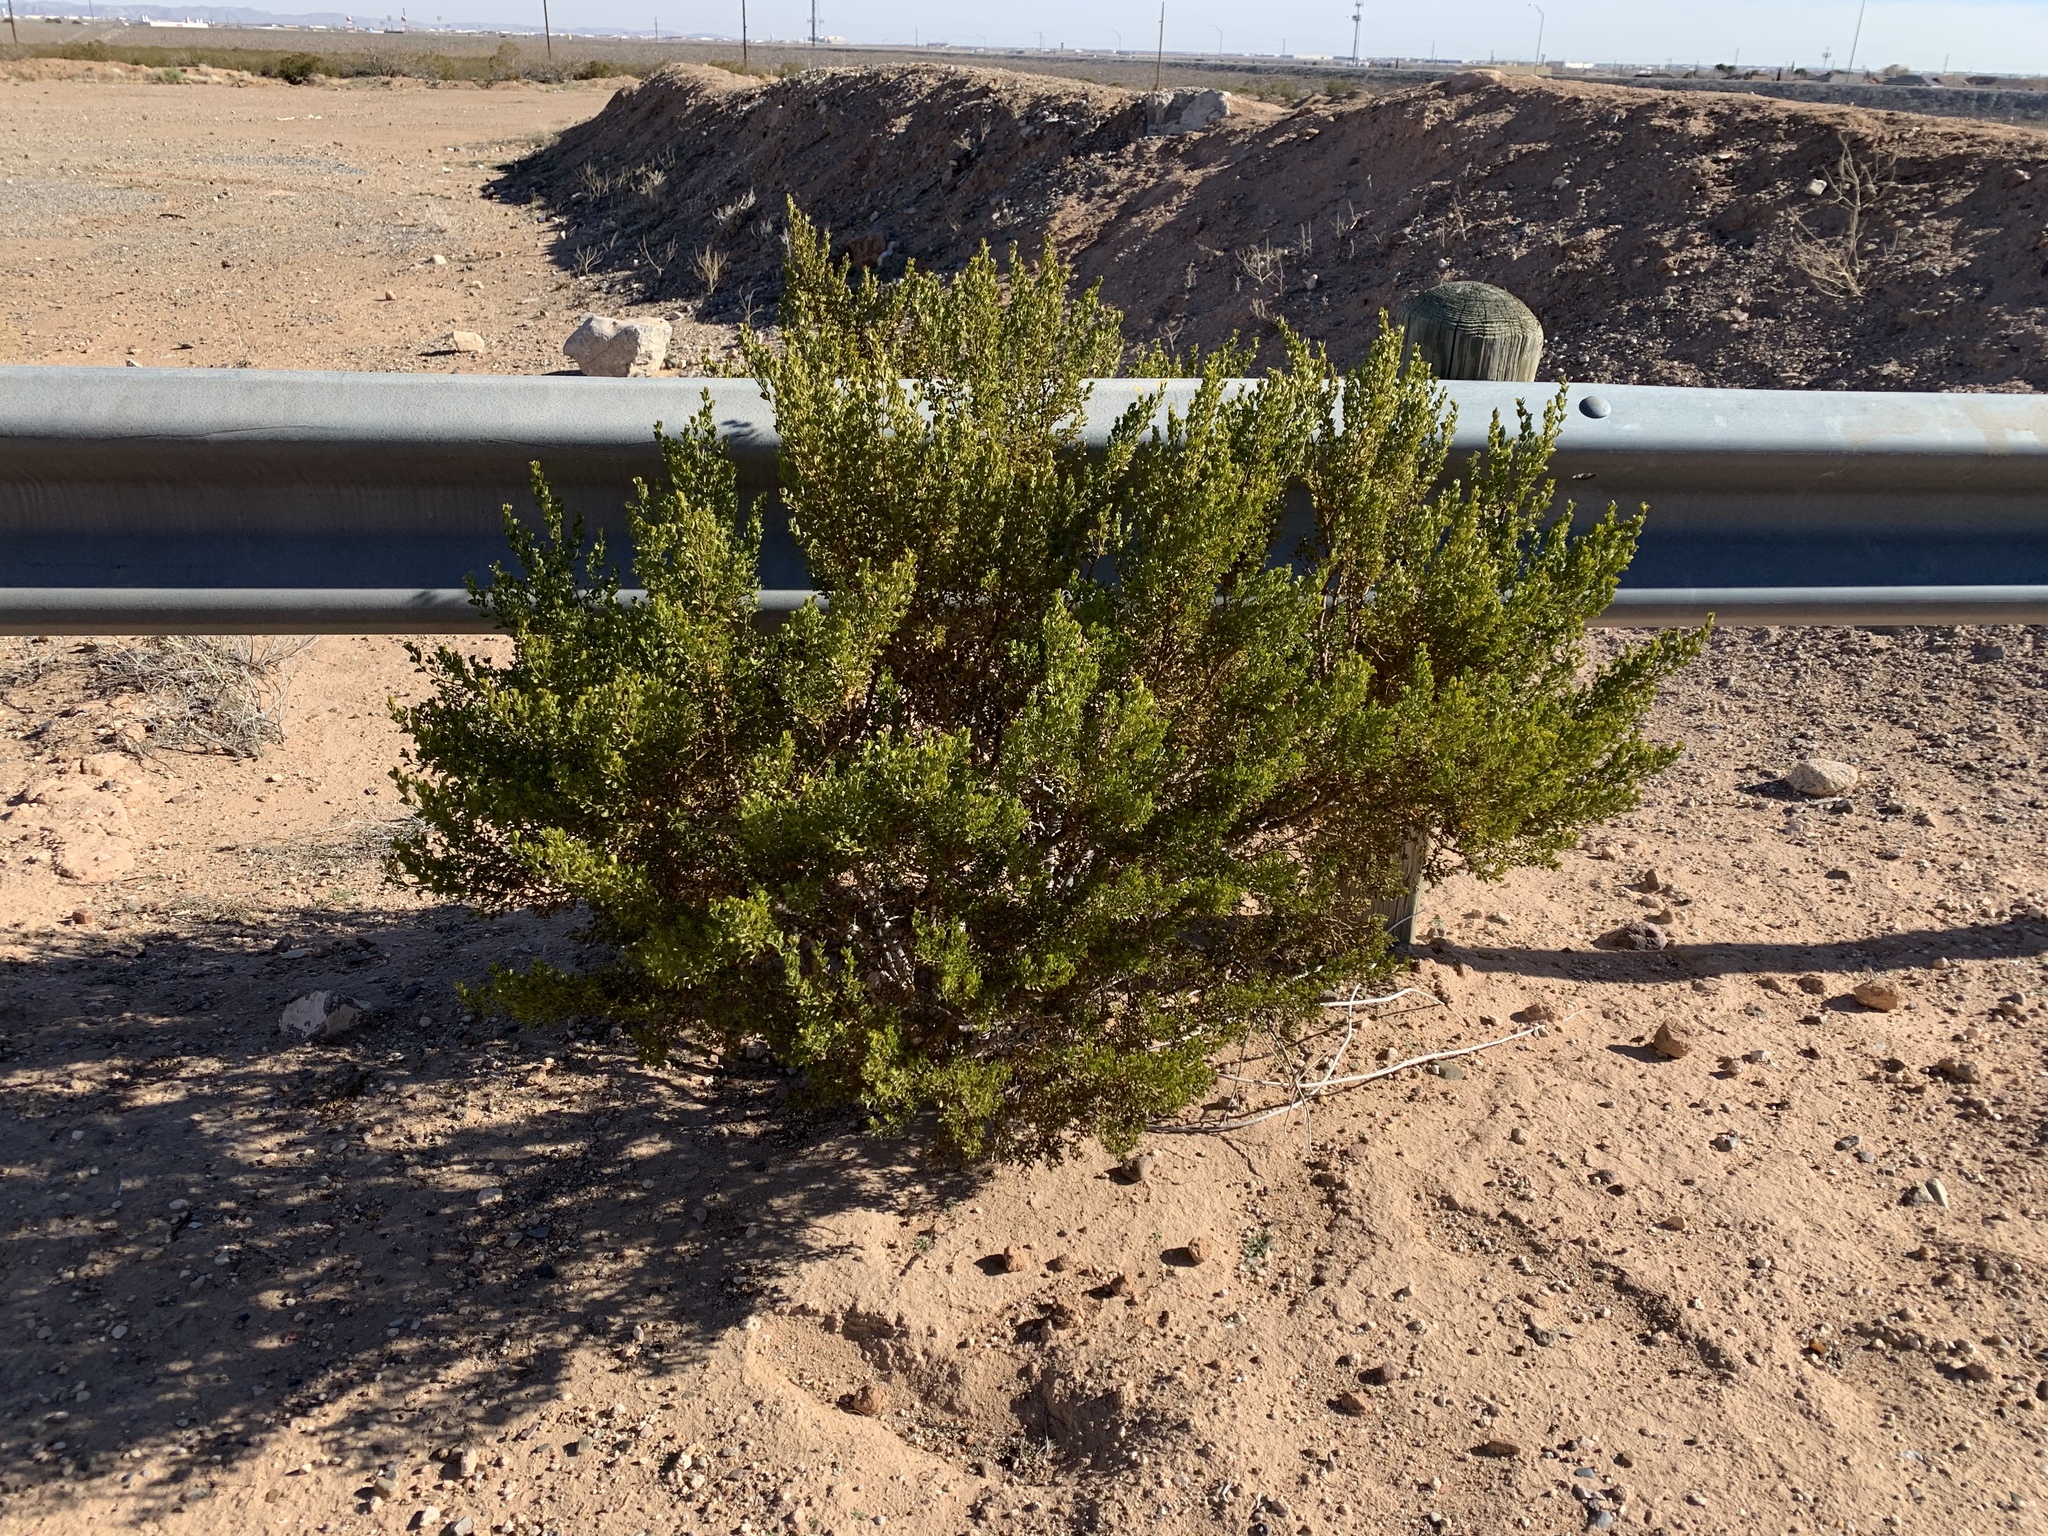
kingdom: Plantae
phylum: Tracheophyta
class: Magnoliopsida
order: Zygophyllales
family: Zygophyllaceae
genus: Larrea
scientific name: Larrea tridentata
